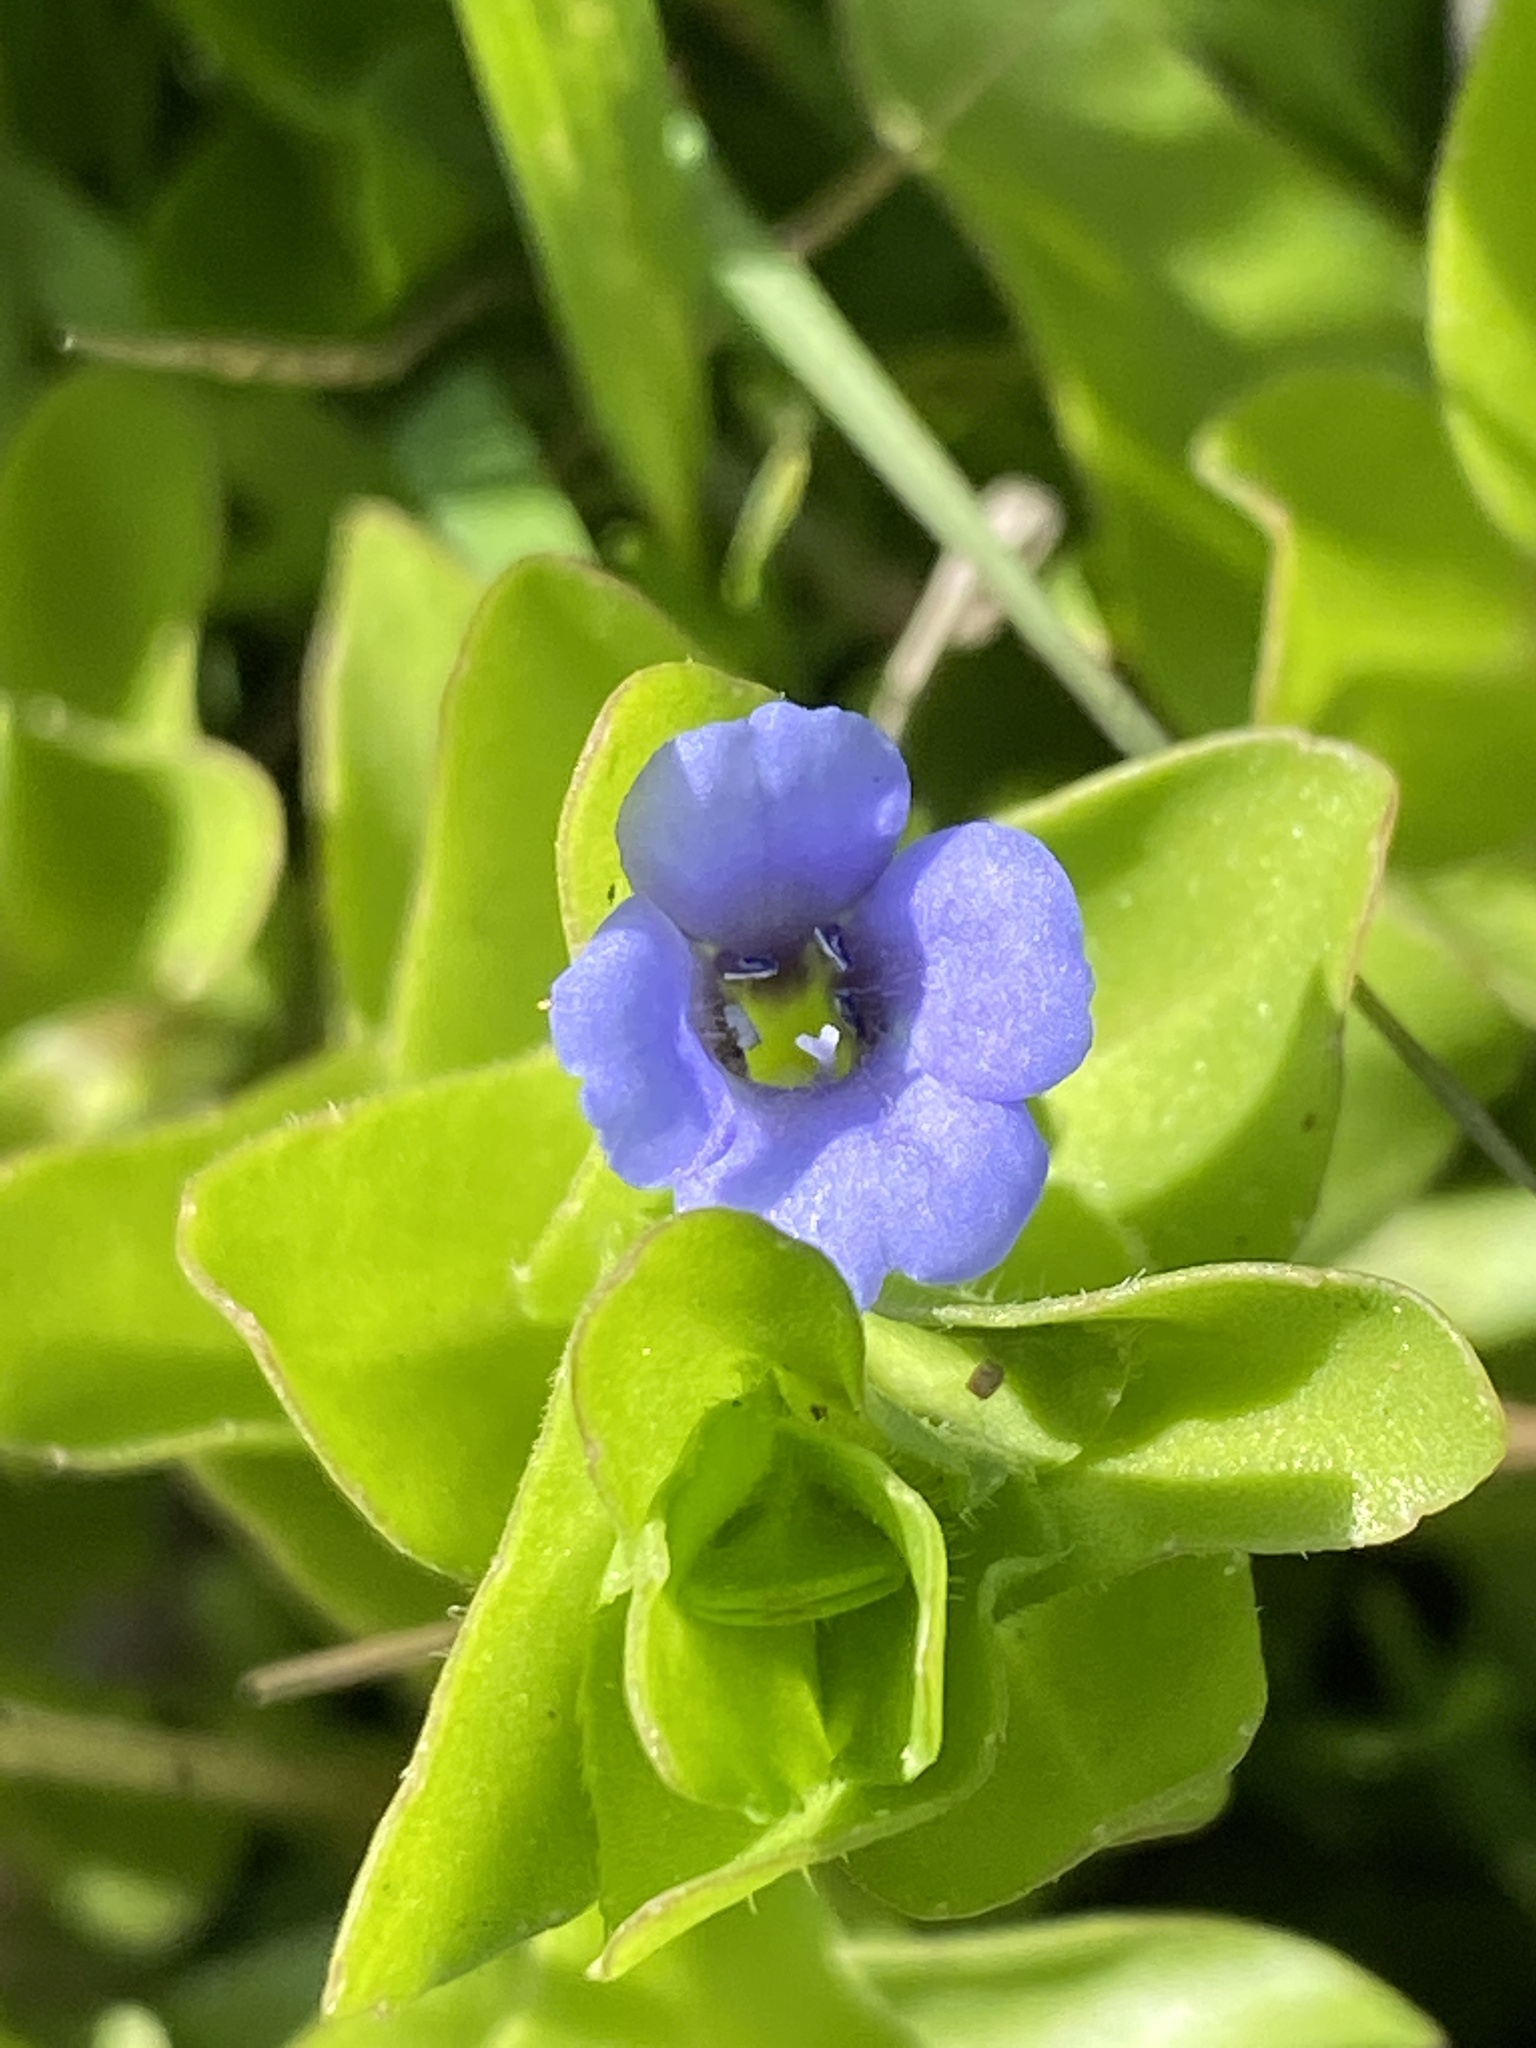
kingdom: Plantae
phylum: Tracheophyta
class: Magnoliopsida
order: Lamiales
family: Plantaginaceae
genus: Bacopa
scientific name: Bacopa caroliniana
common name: Lemon bacopa
